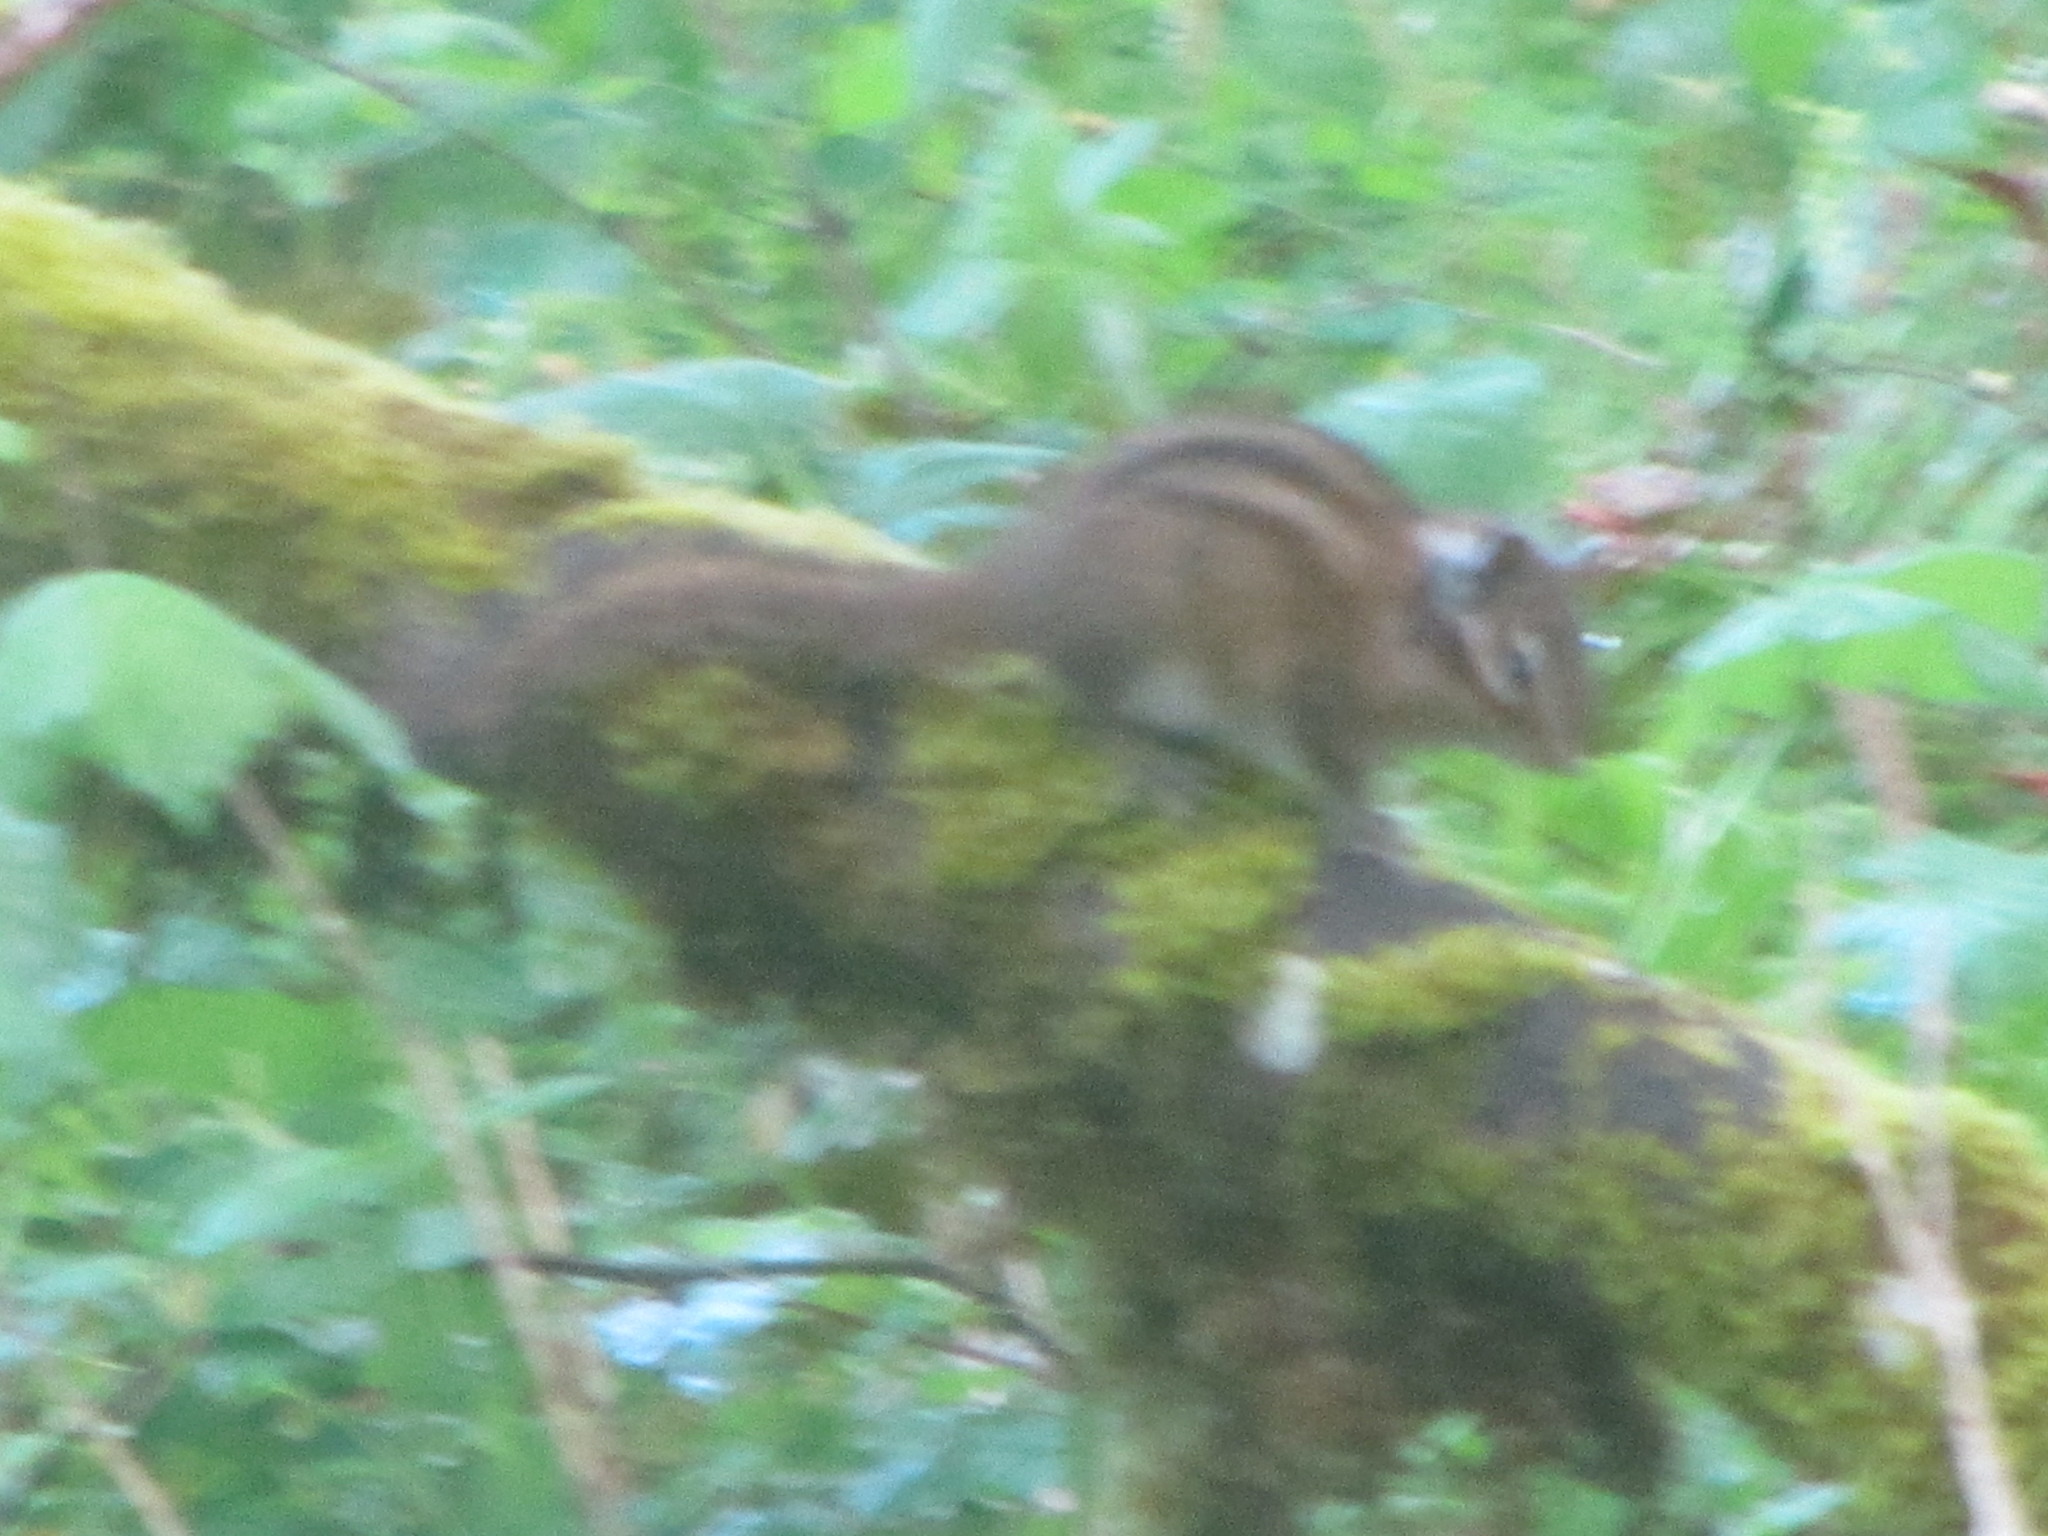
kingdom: Animalia
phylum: Chordata
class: Mammalia
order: Rodentia
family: Sciuridae
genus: Tamias
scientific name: Tamias townsendii
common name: Townsend's chipmunk
